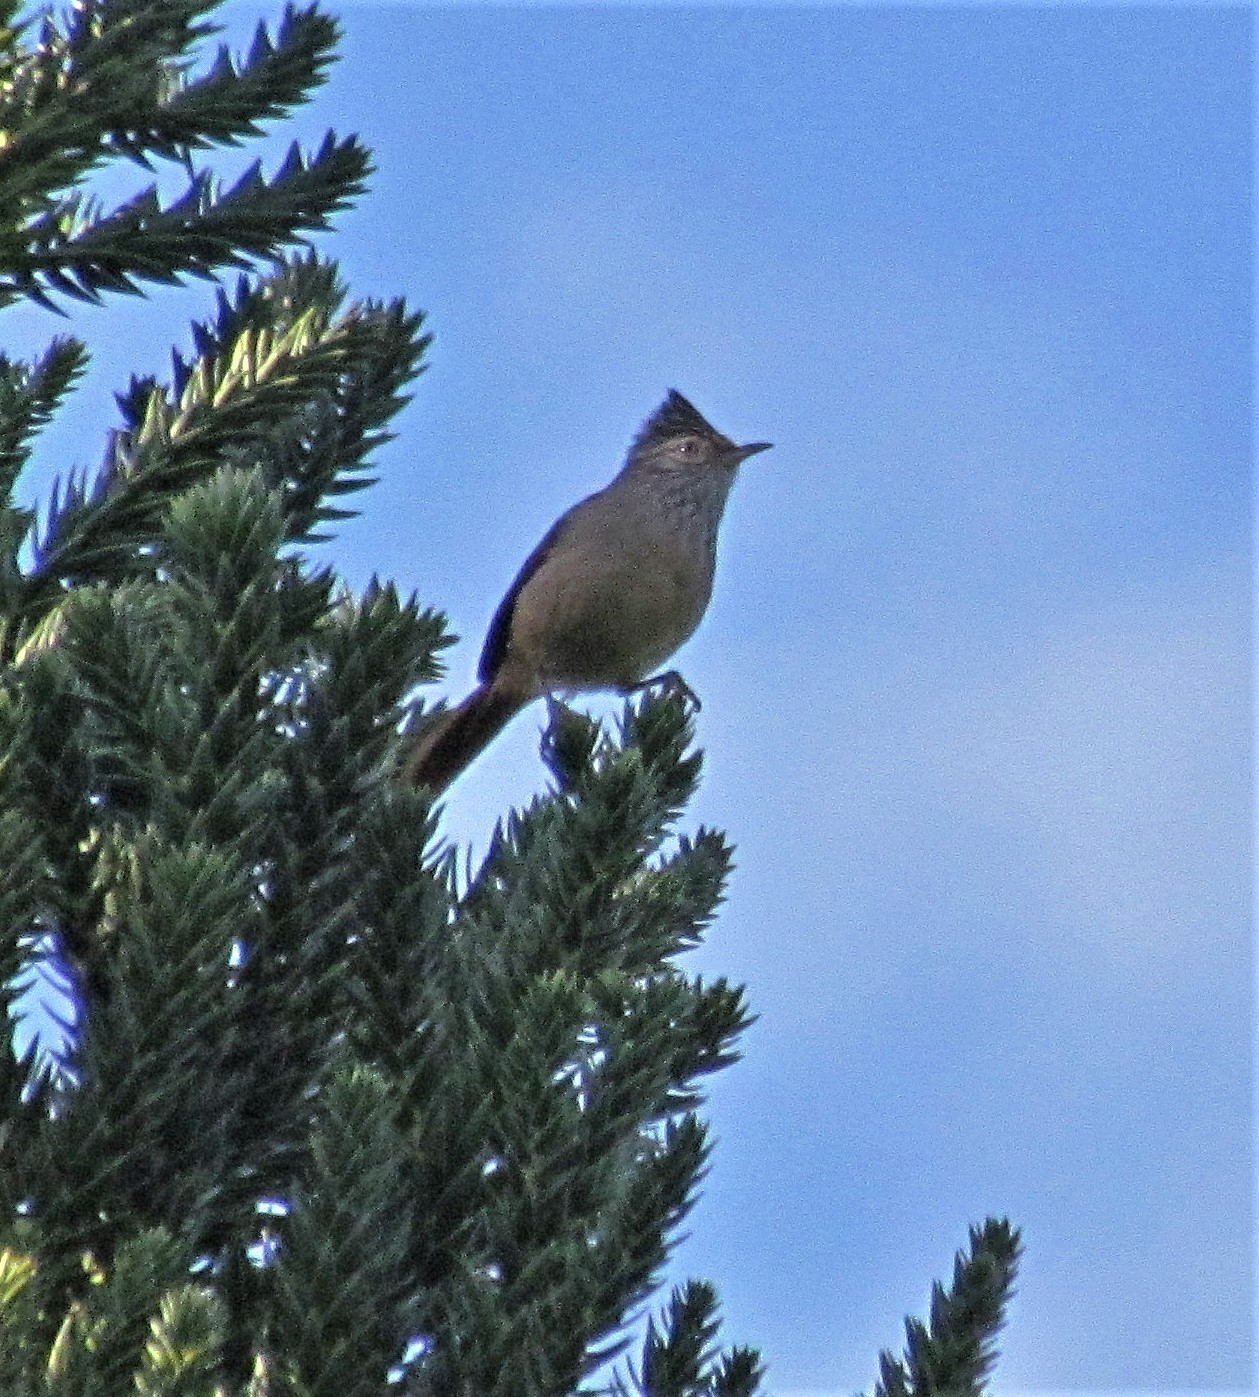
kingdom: Animalia
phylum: Chordata
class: Aves
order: Passeriformes
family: Furnariidae
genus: Leptasthenura
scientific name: Leptasthenura setaria
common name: Araucaria tit-spinetail
